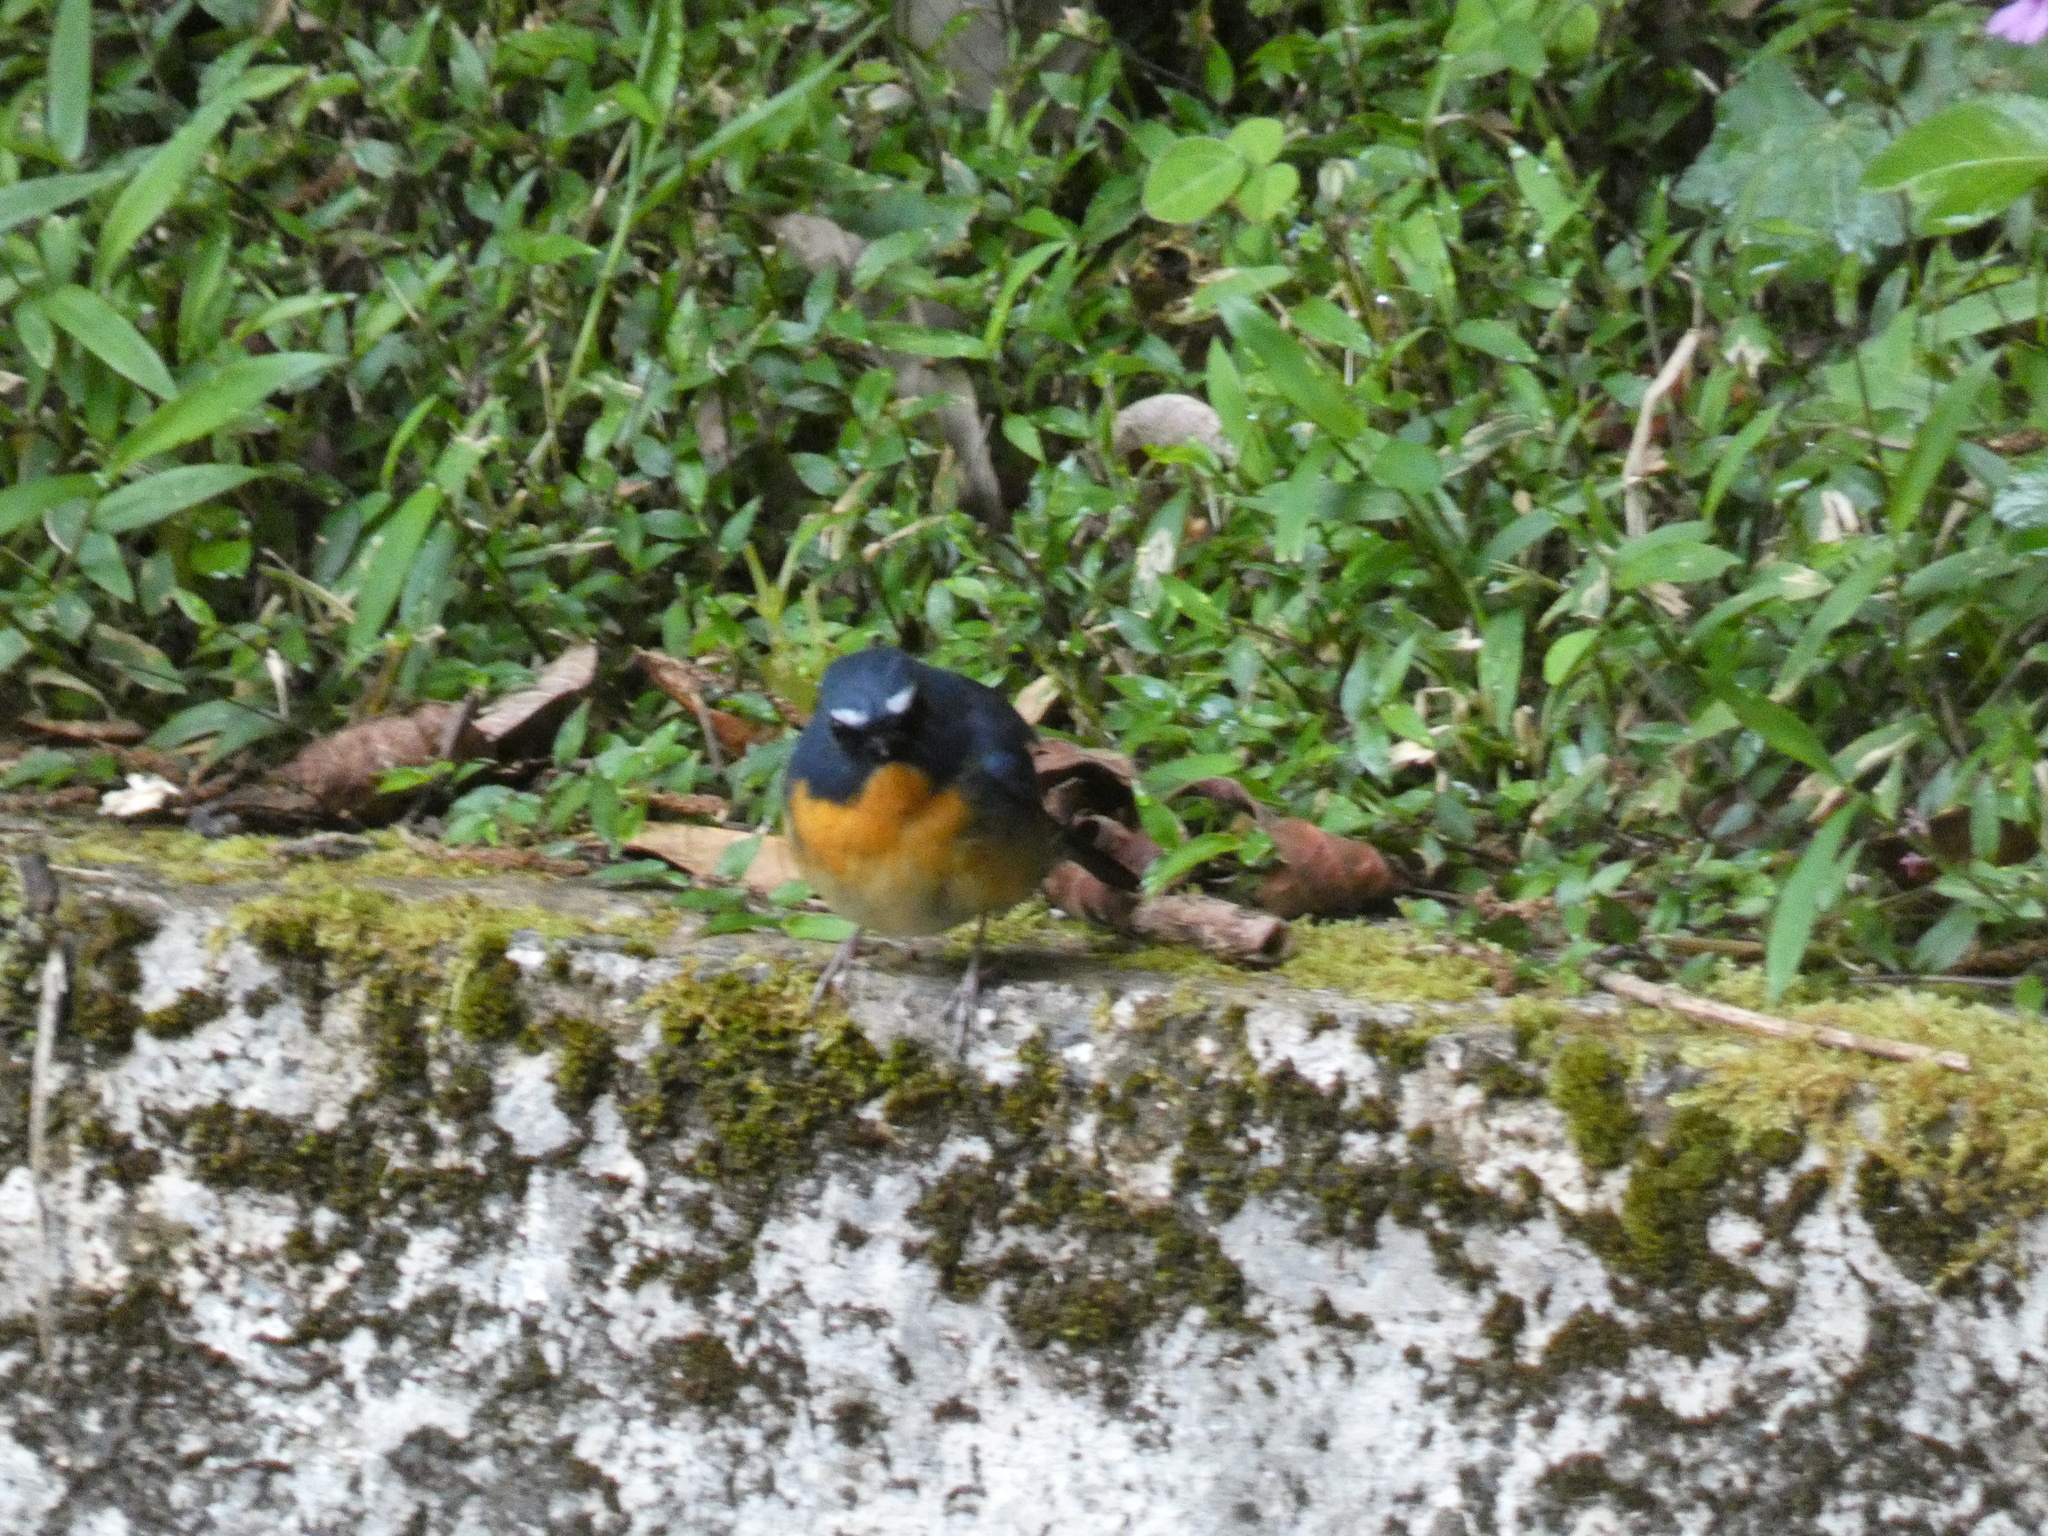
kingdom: Animalia
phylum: Chordata
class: Aves
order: Passeriformes
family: Muscicapidae
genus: Ficedula
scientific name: Ficedula hyperythra
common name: Snowy-browed flycatcher
